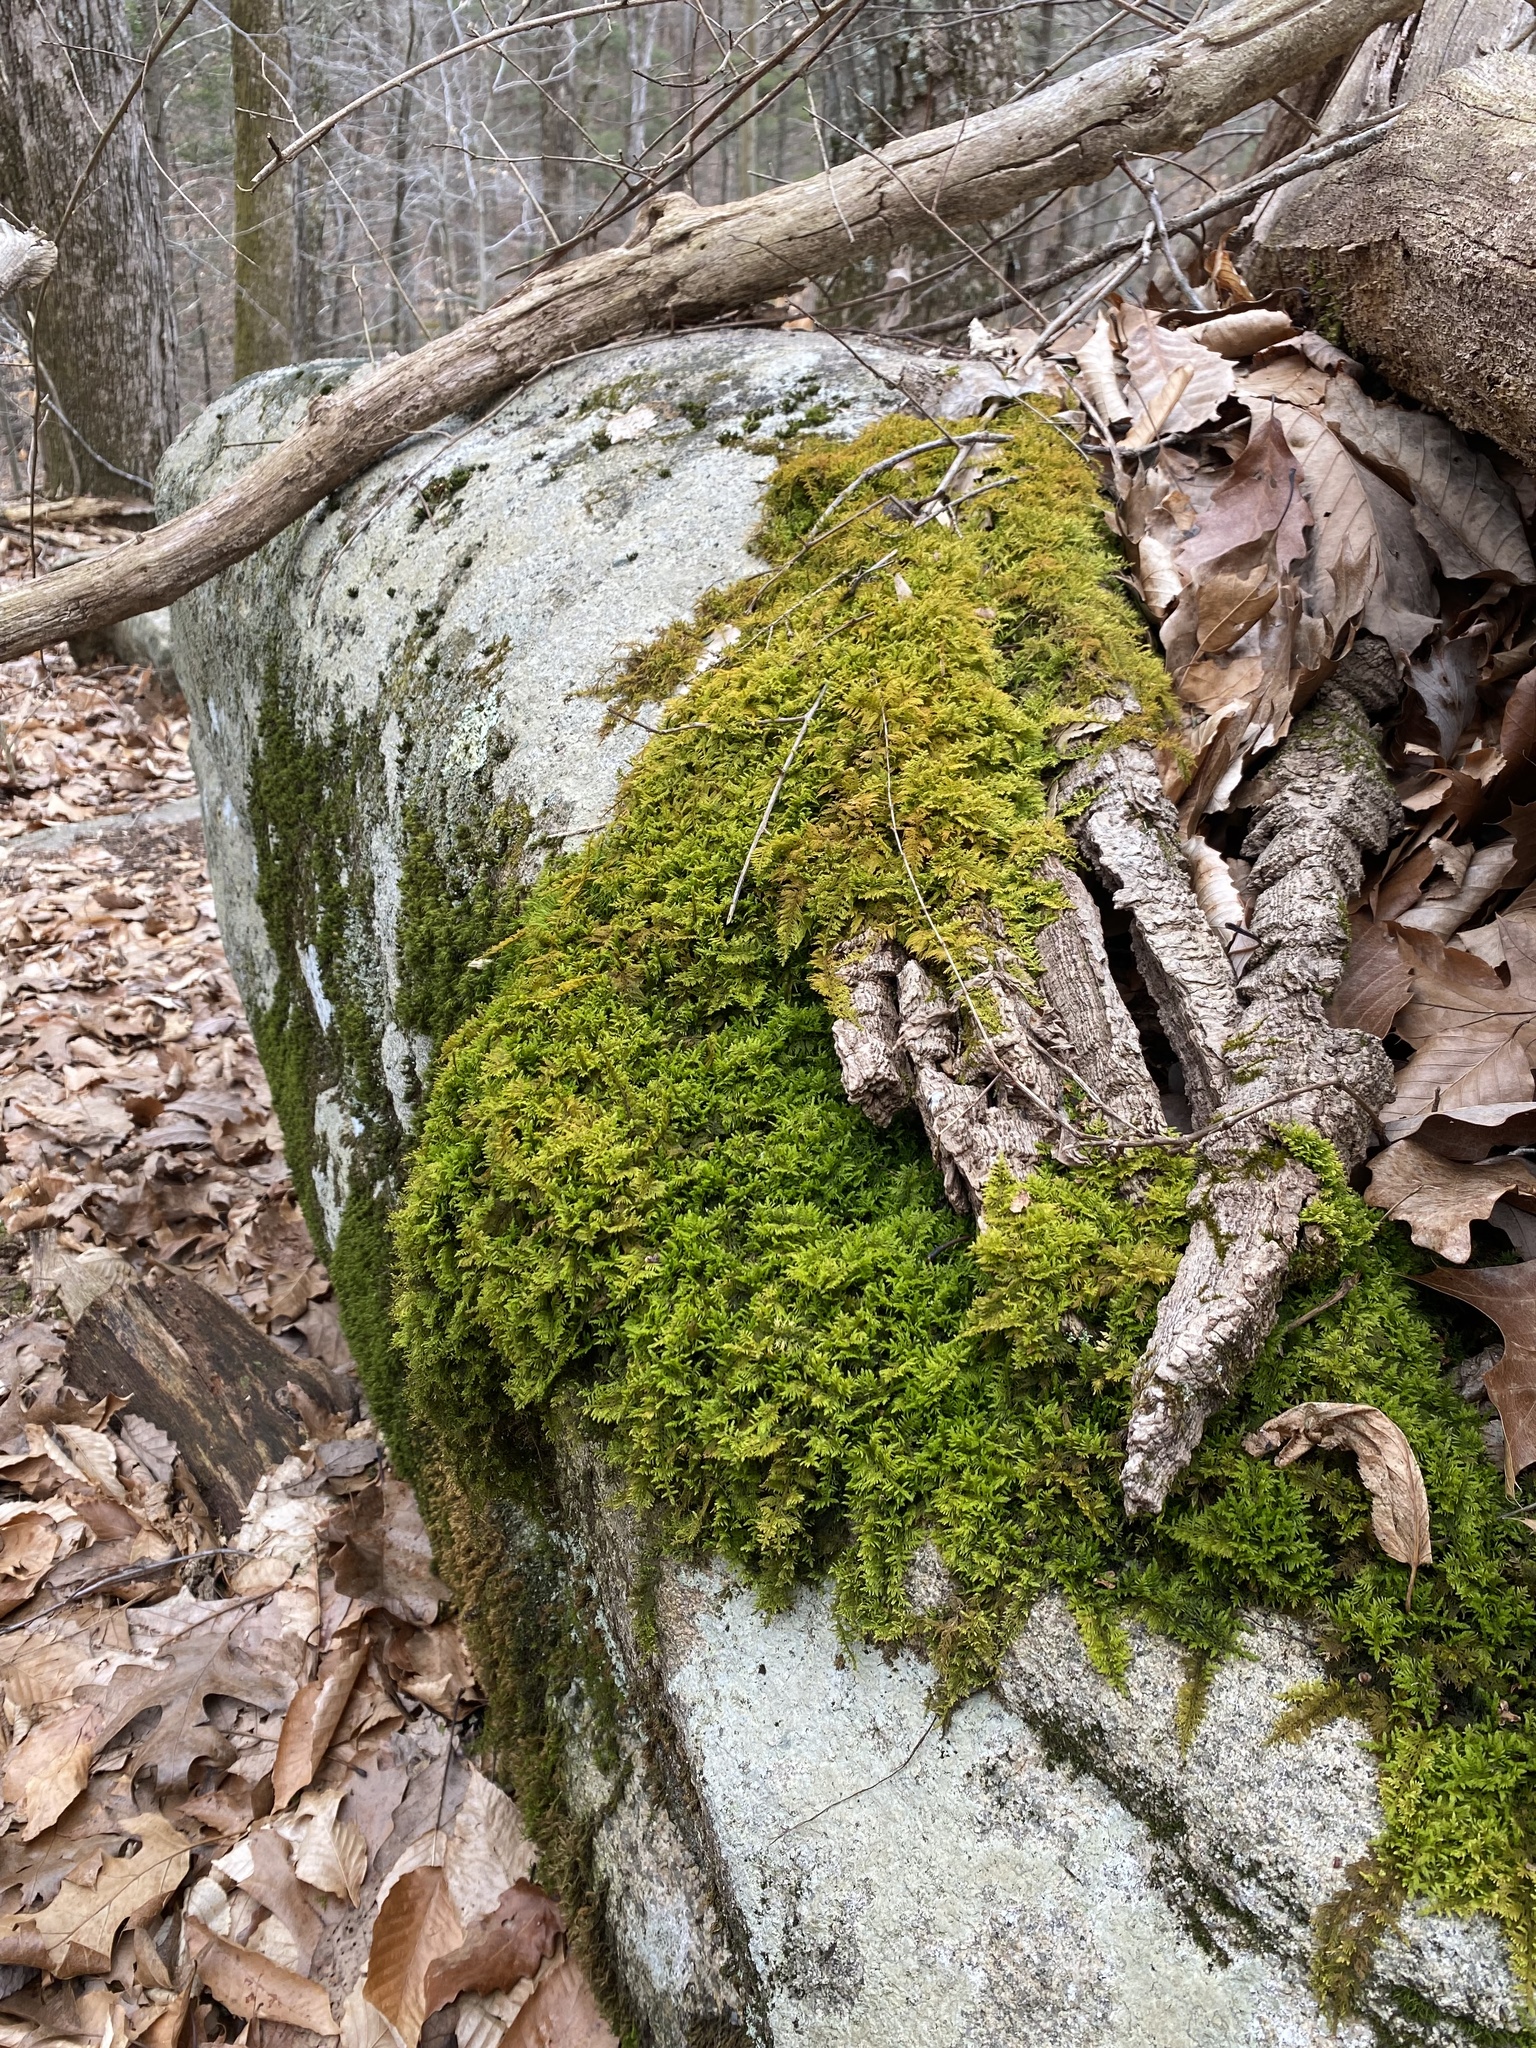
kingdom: Plantae
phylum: Bryophyta
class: Bryopsida
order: Hypnales
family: Thuidiaceae
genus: Thuidium
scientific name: Thuidium delicatulum
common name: Delicate fern moss
